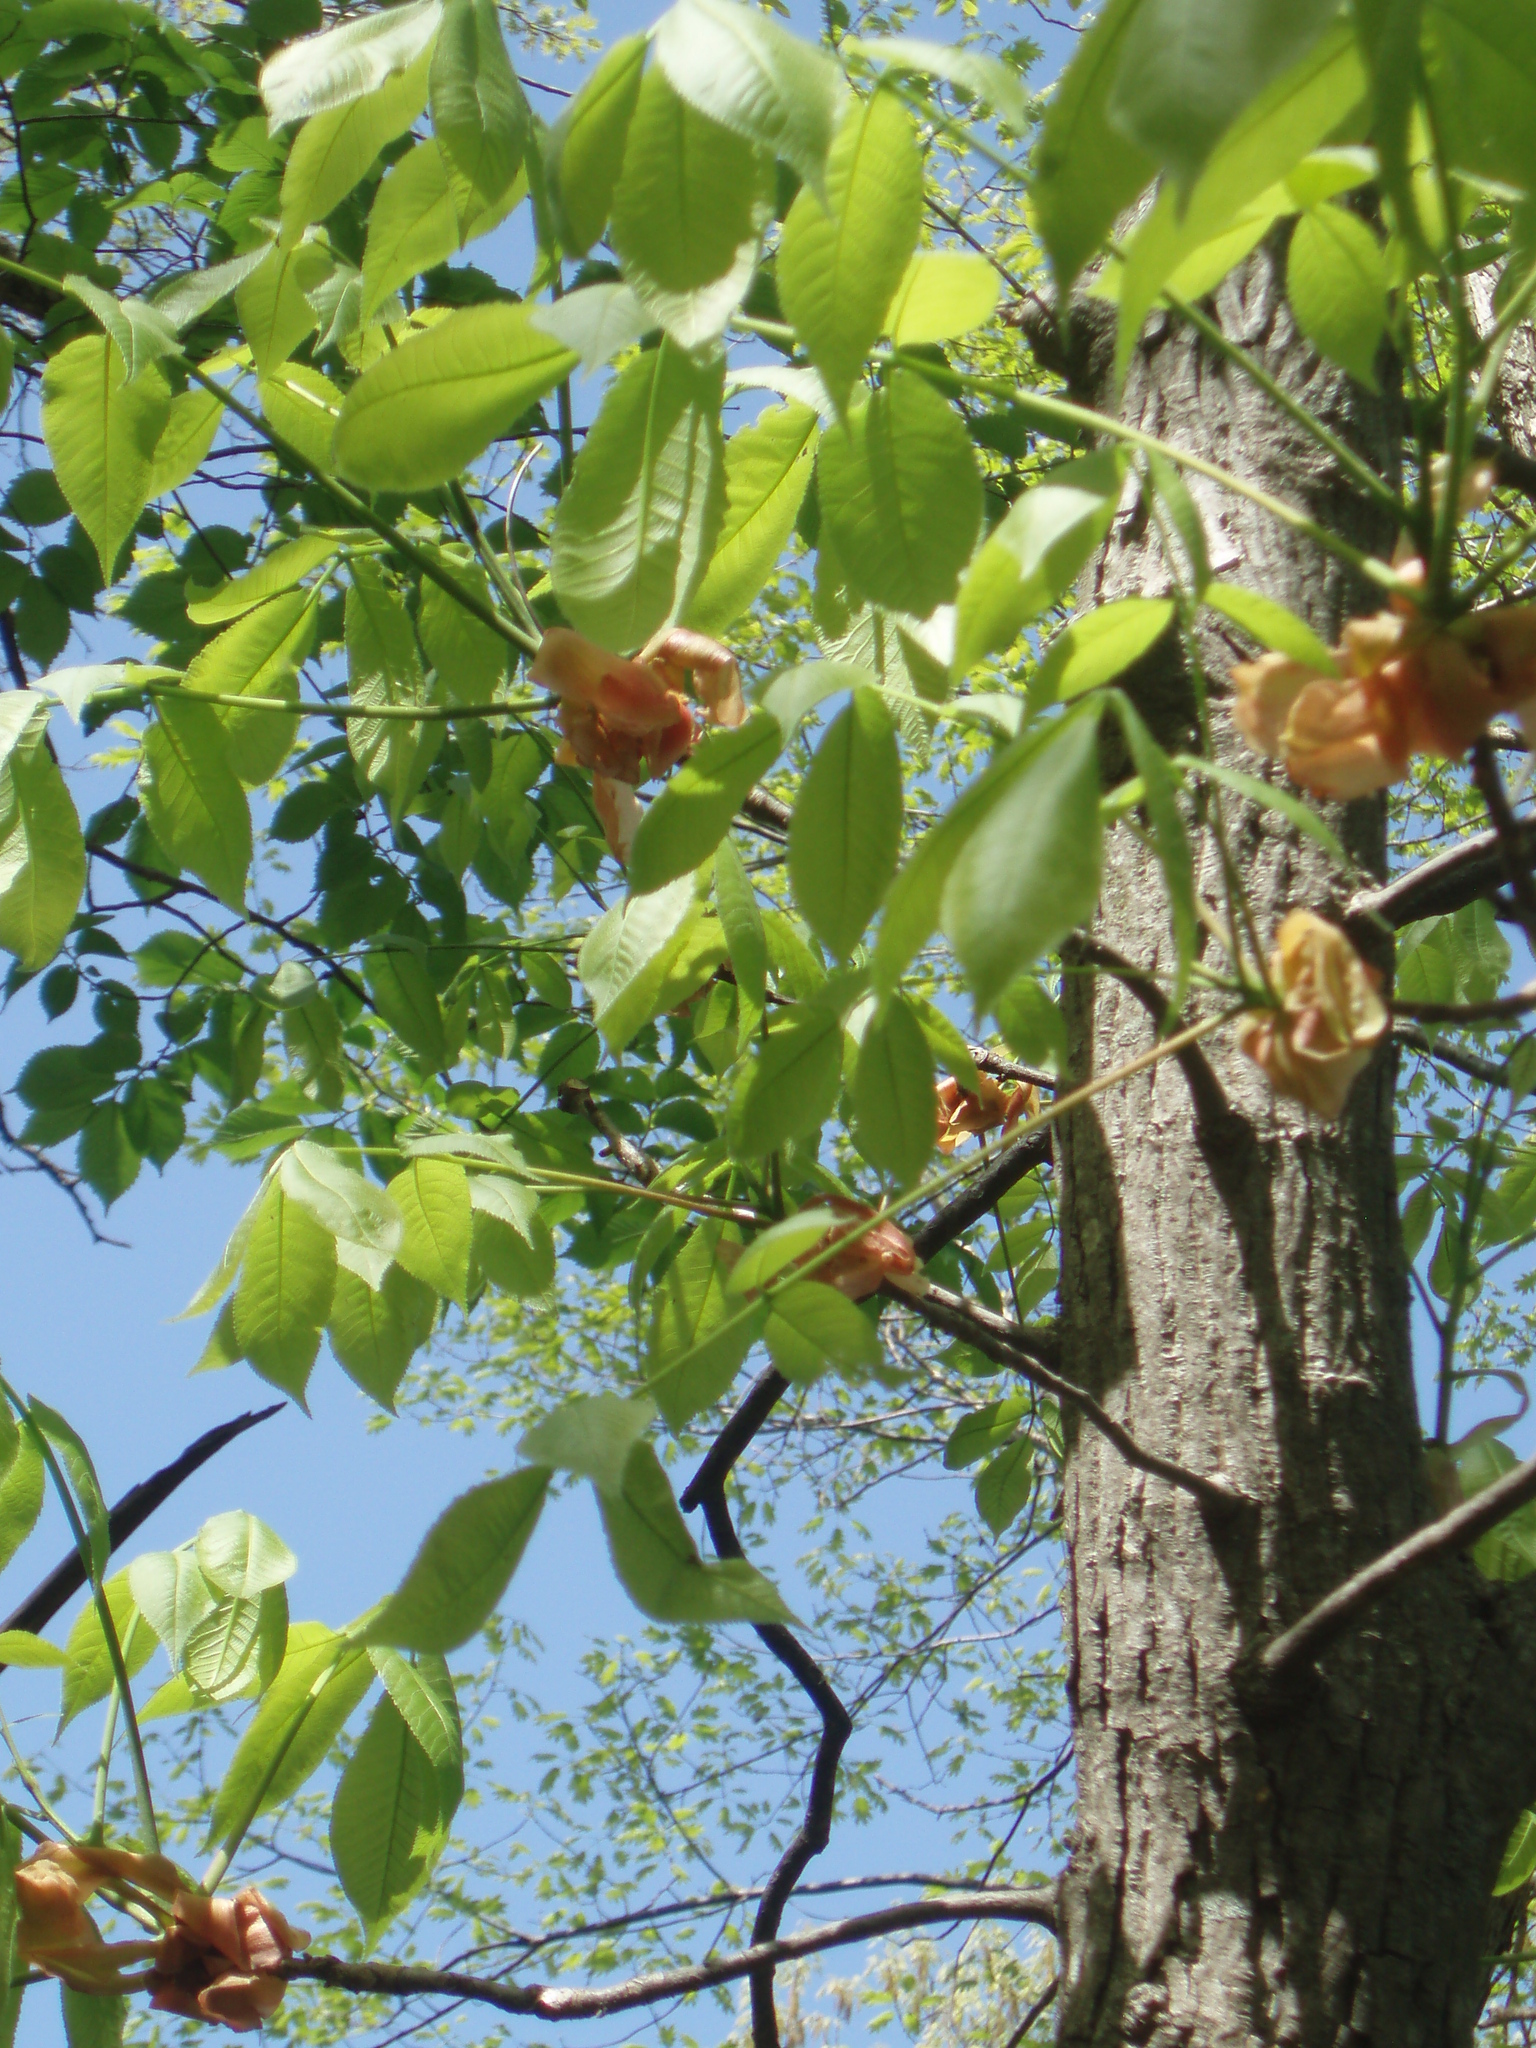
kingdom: Plantae
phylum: Tracheophyta
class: Magnoliopsida
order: Fagales
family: Juglandaceae
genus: Carya
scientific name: Carya ovata
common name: Shagbark hickory
